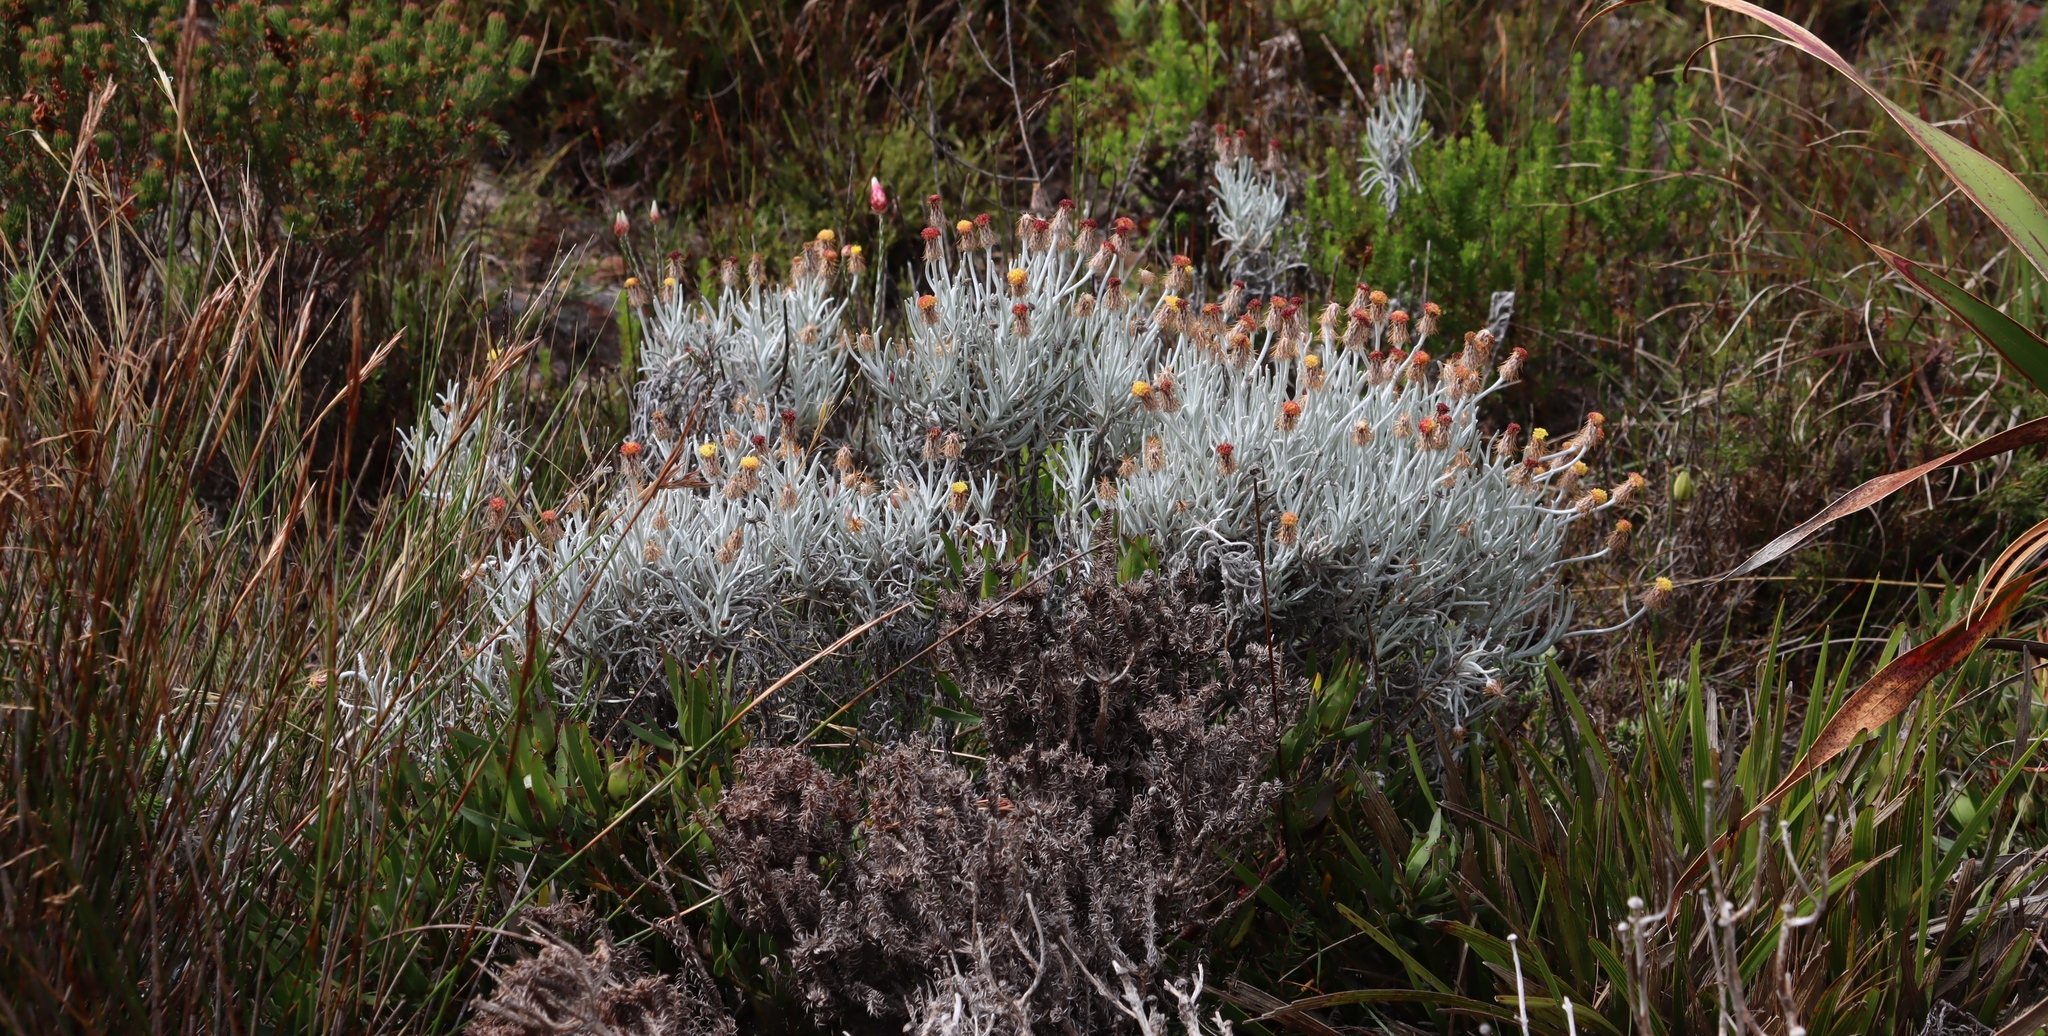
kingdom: Plantae
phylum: Tracheophyta
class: Magnoliopsida
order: Asterales
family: Asteraceae
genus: Syncarpha
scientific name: Syncarpha gnaphaloides
